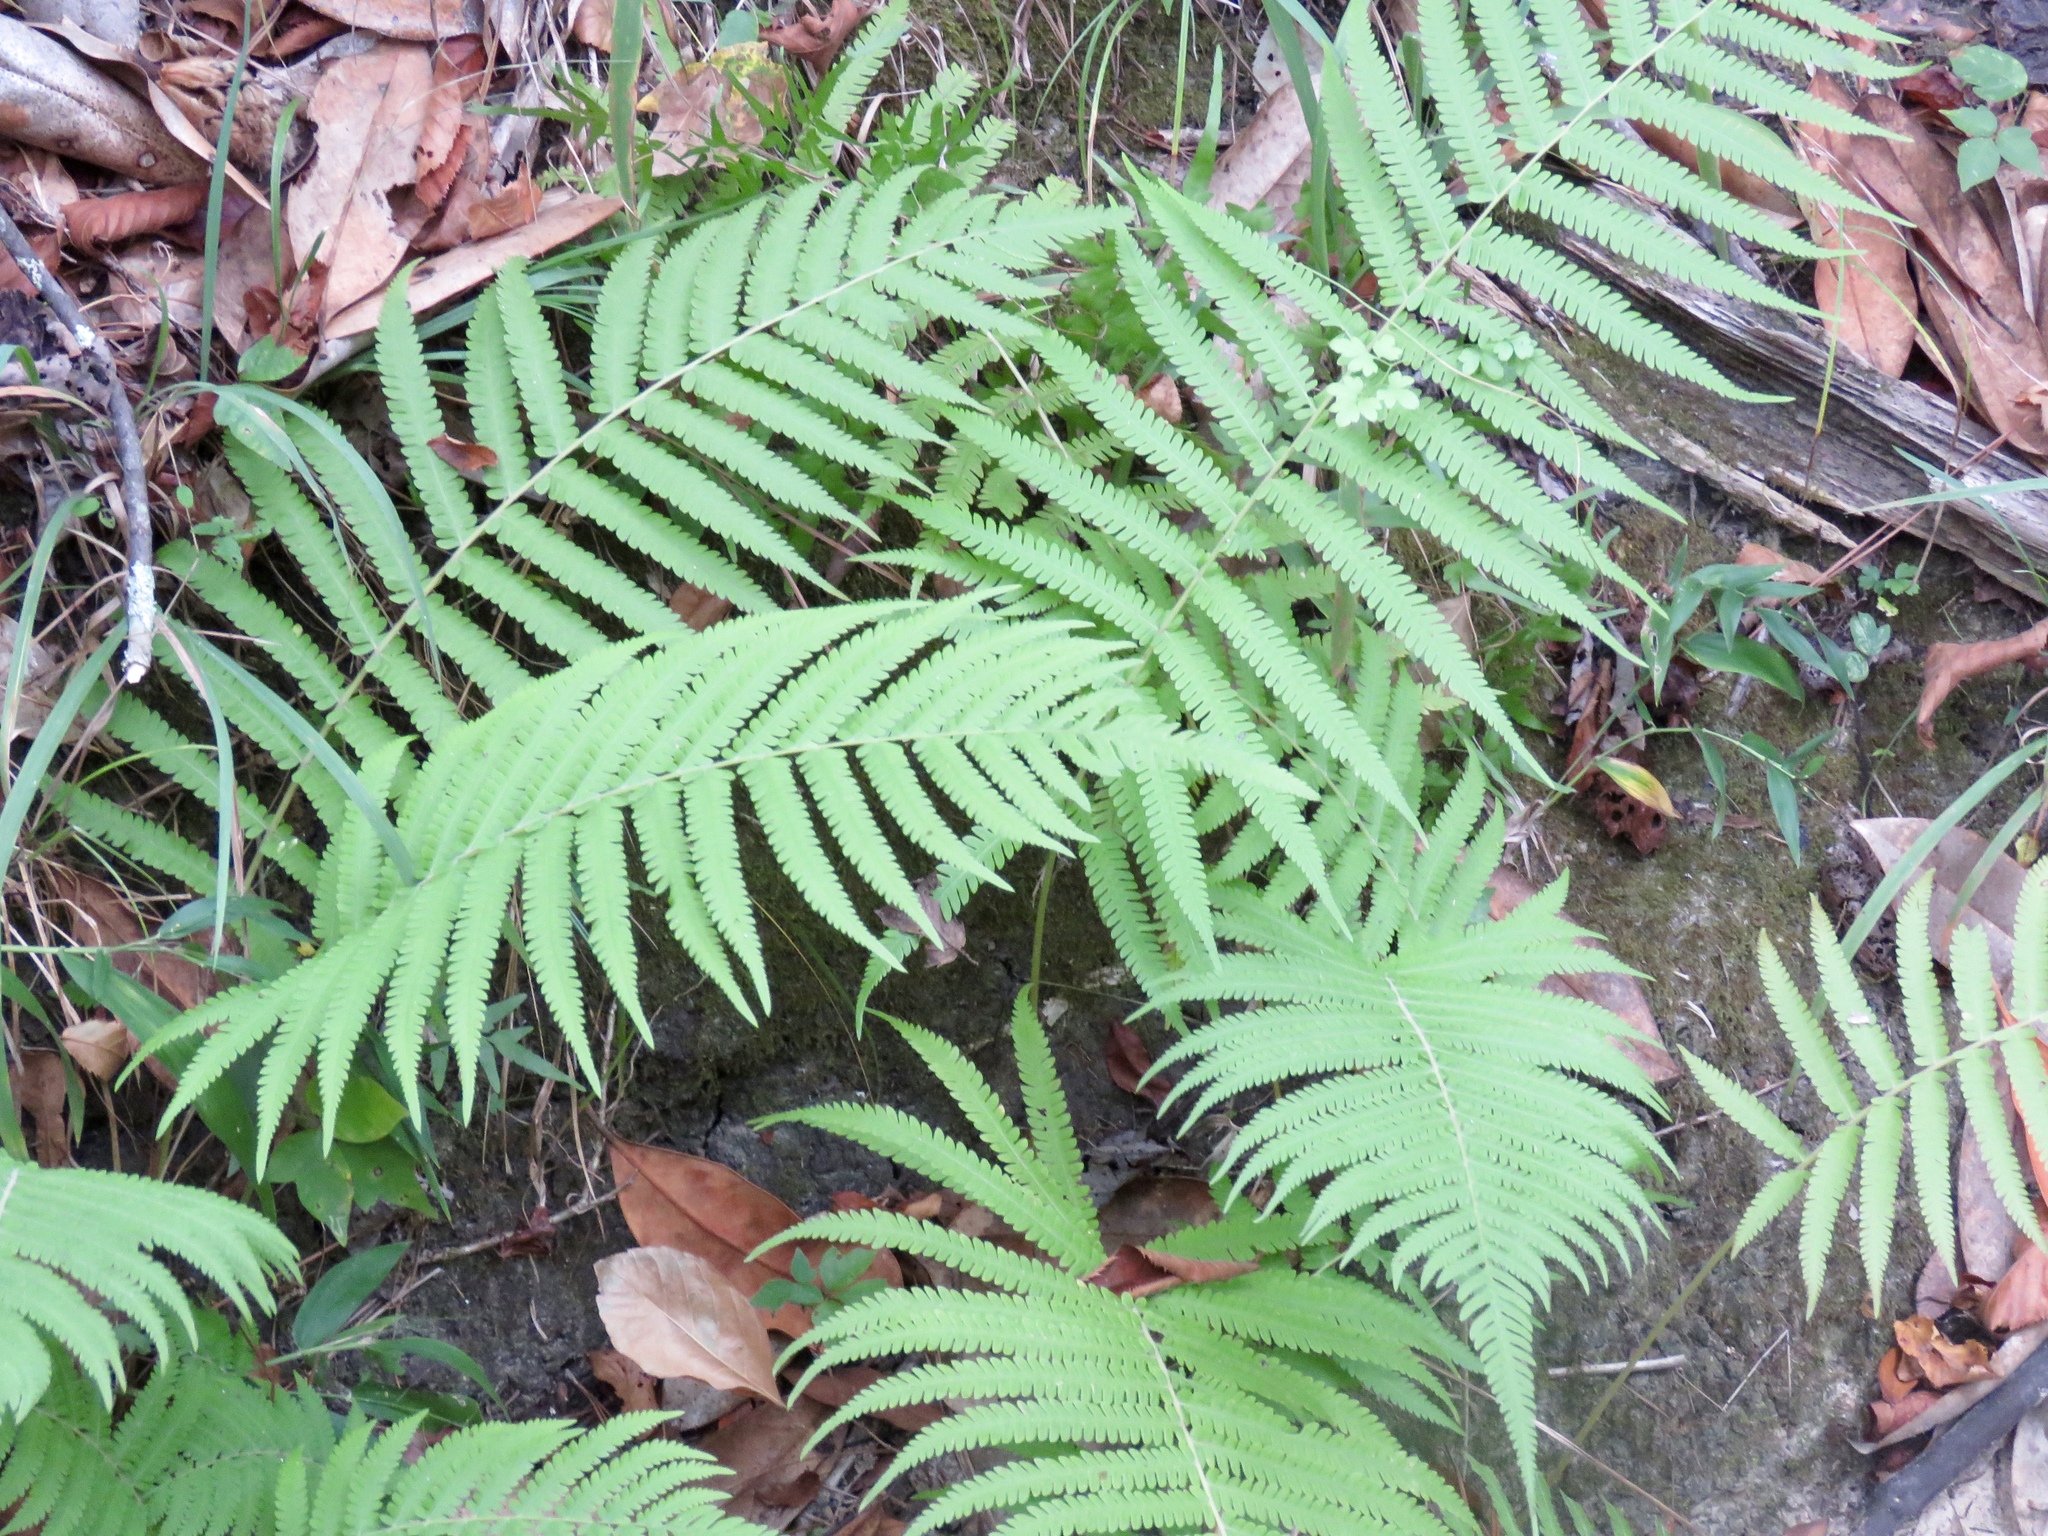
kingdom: Plantae
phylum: Tracheophyta
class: Polypodiopsida
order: Polypodiales
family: Thelypteridaceae
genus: Pelazoneuron
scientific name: Pelazoneuron kunthii
